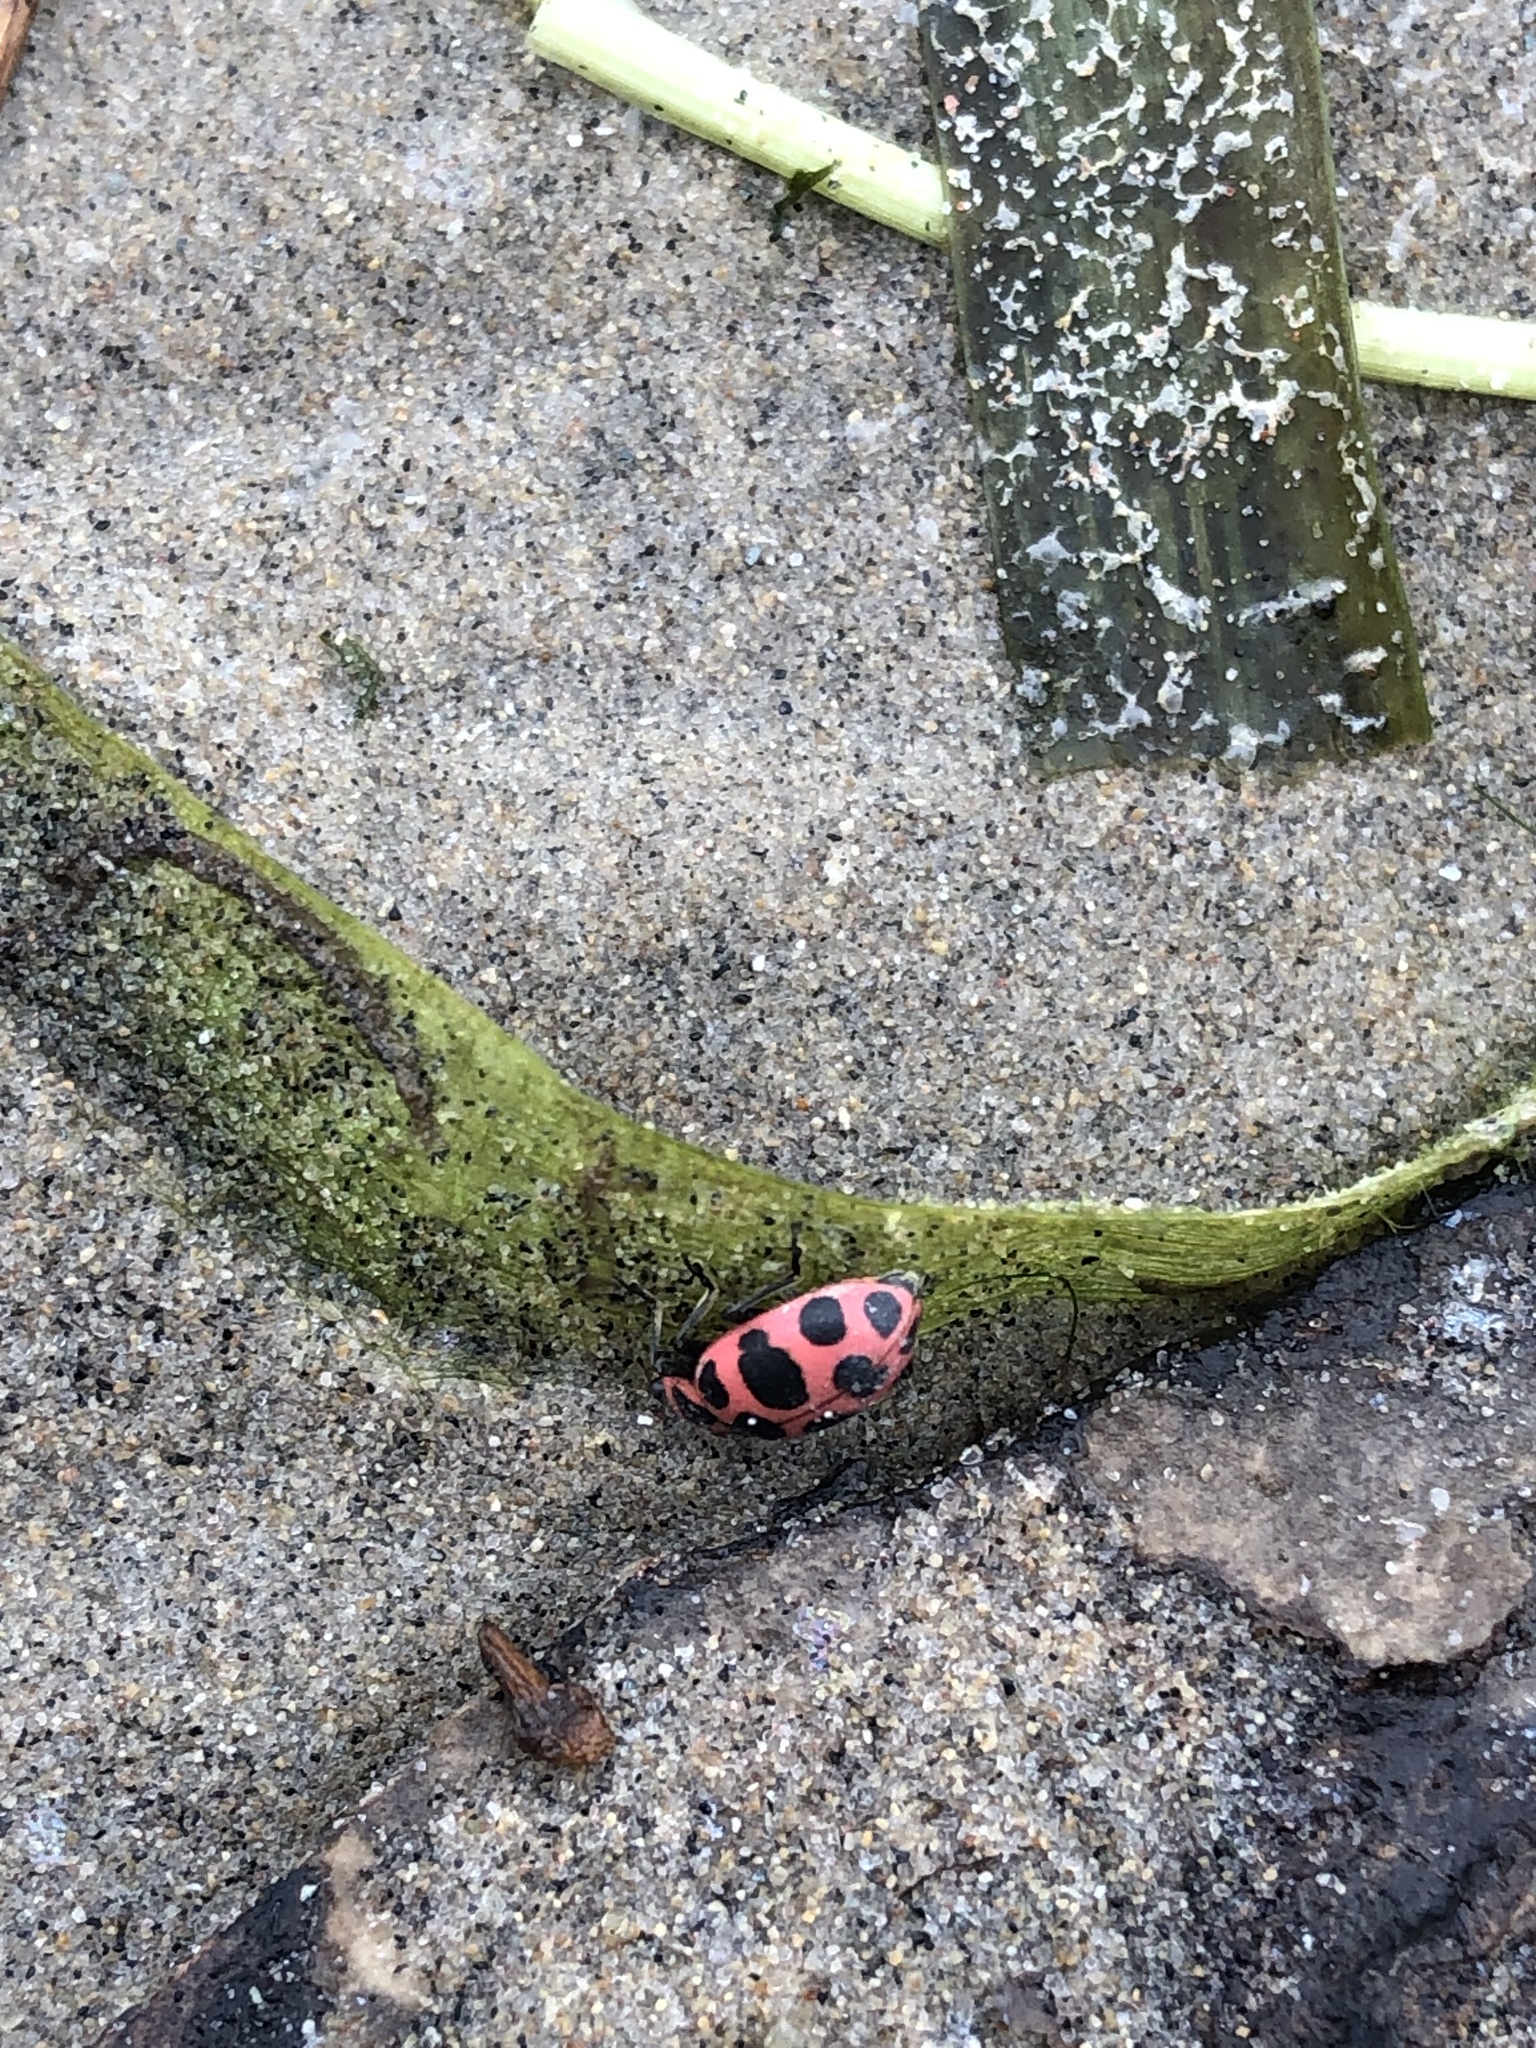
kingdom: Animalia
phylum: Arthropoda
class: Insecta
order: Coleoptera
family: Coccinellidae
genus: Coleomegilla
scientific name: Coleomegilla maculata
